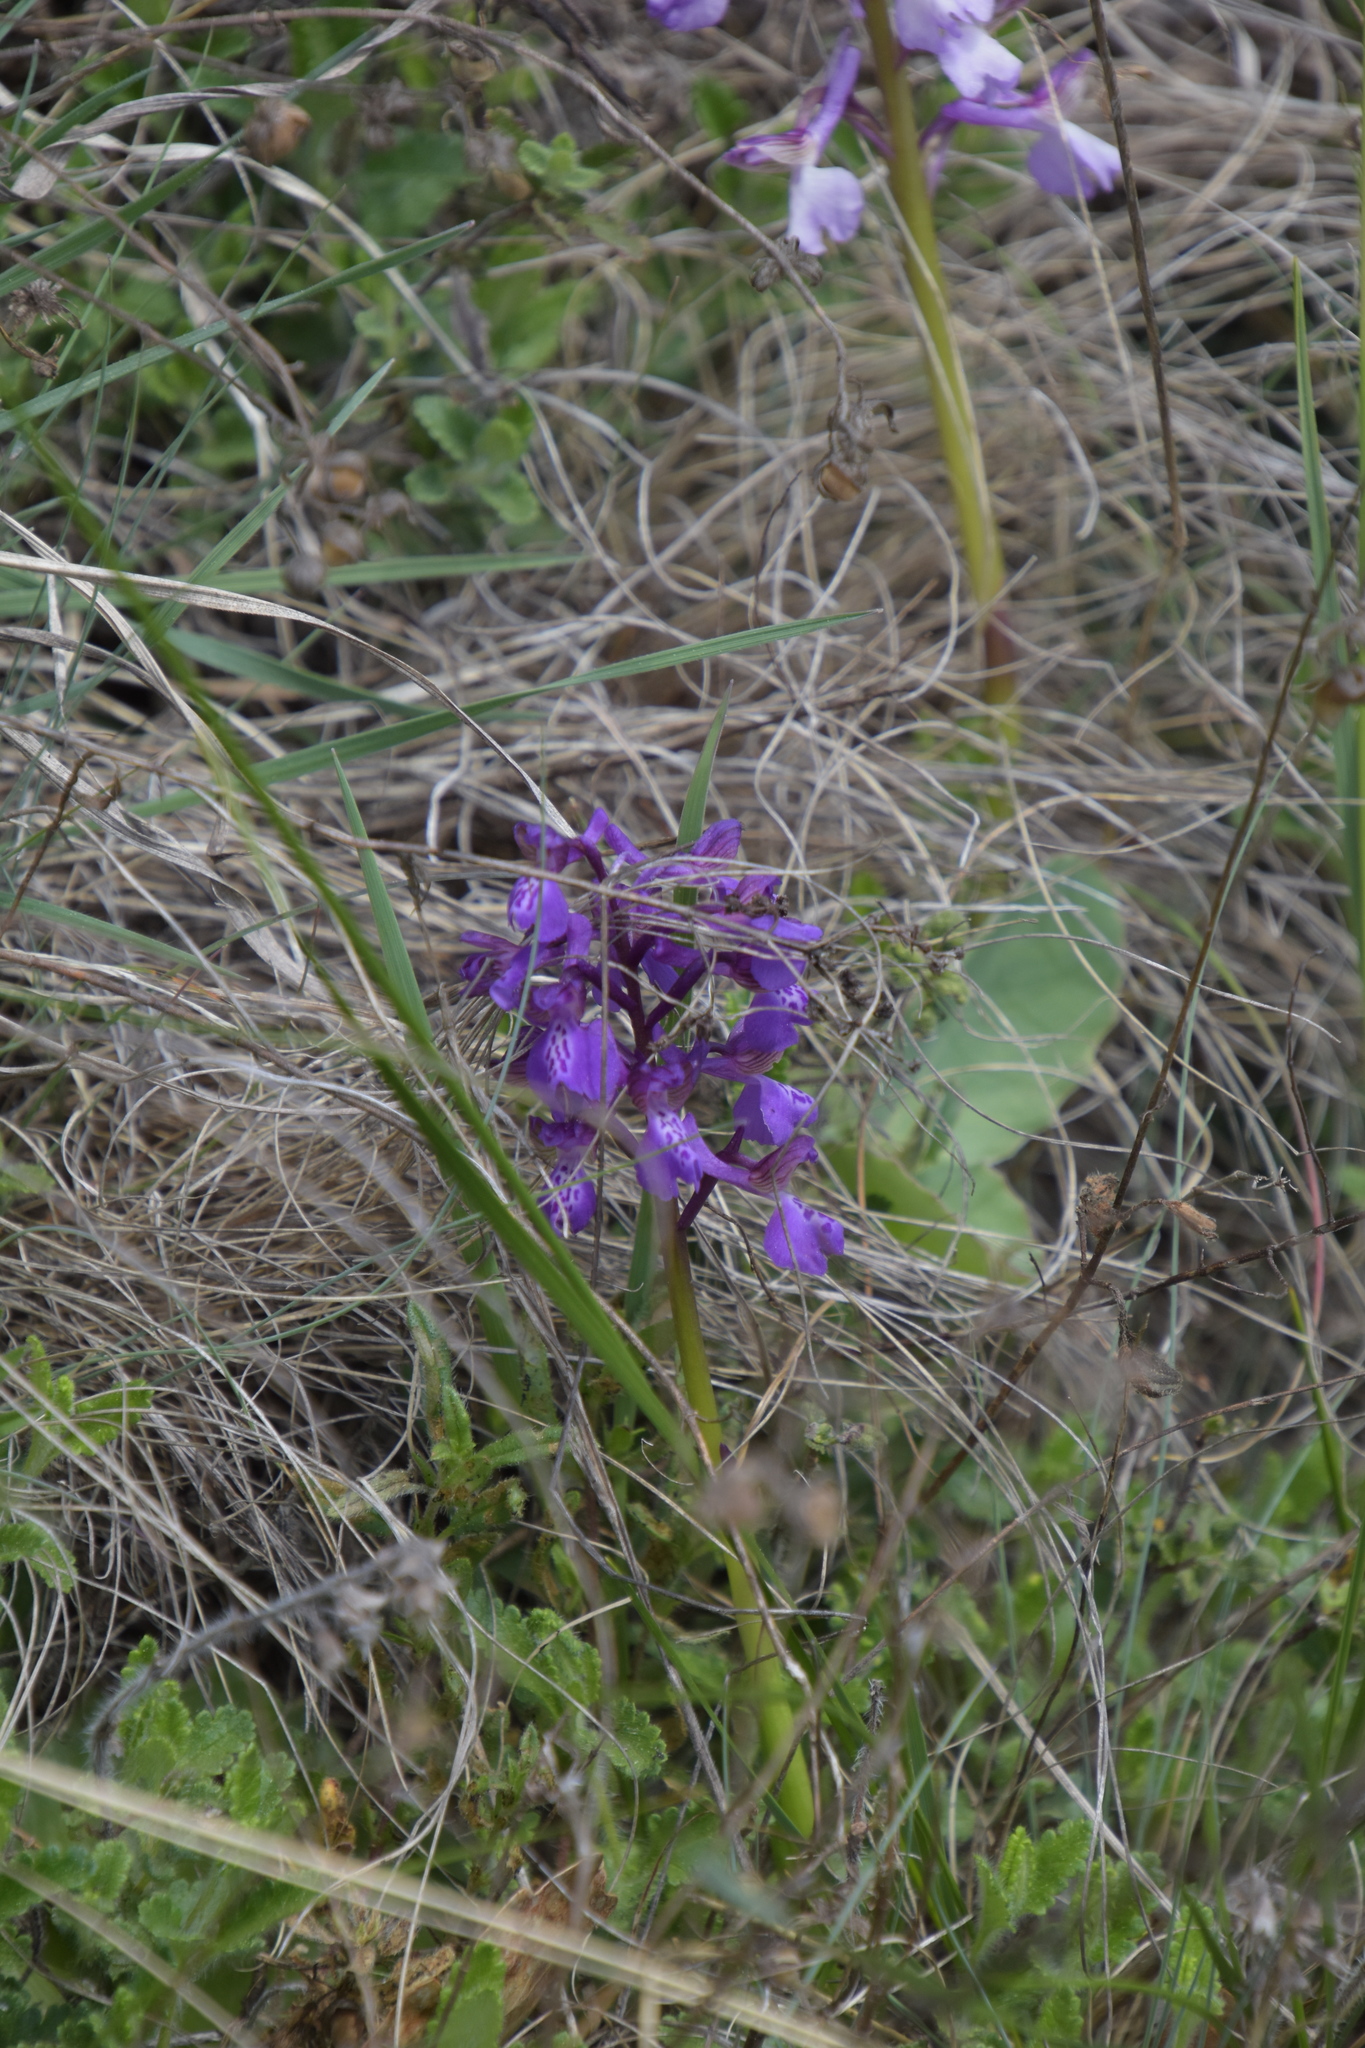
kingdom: Plantae
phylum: Tracheophyta
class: Liliopsida
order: Asparagales
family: Orchidaceae
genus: Anacamptis
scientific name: Anacamptis morio
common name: Green-winged orchid
